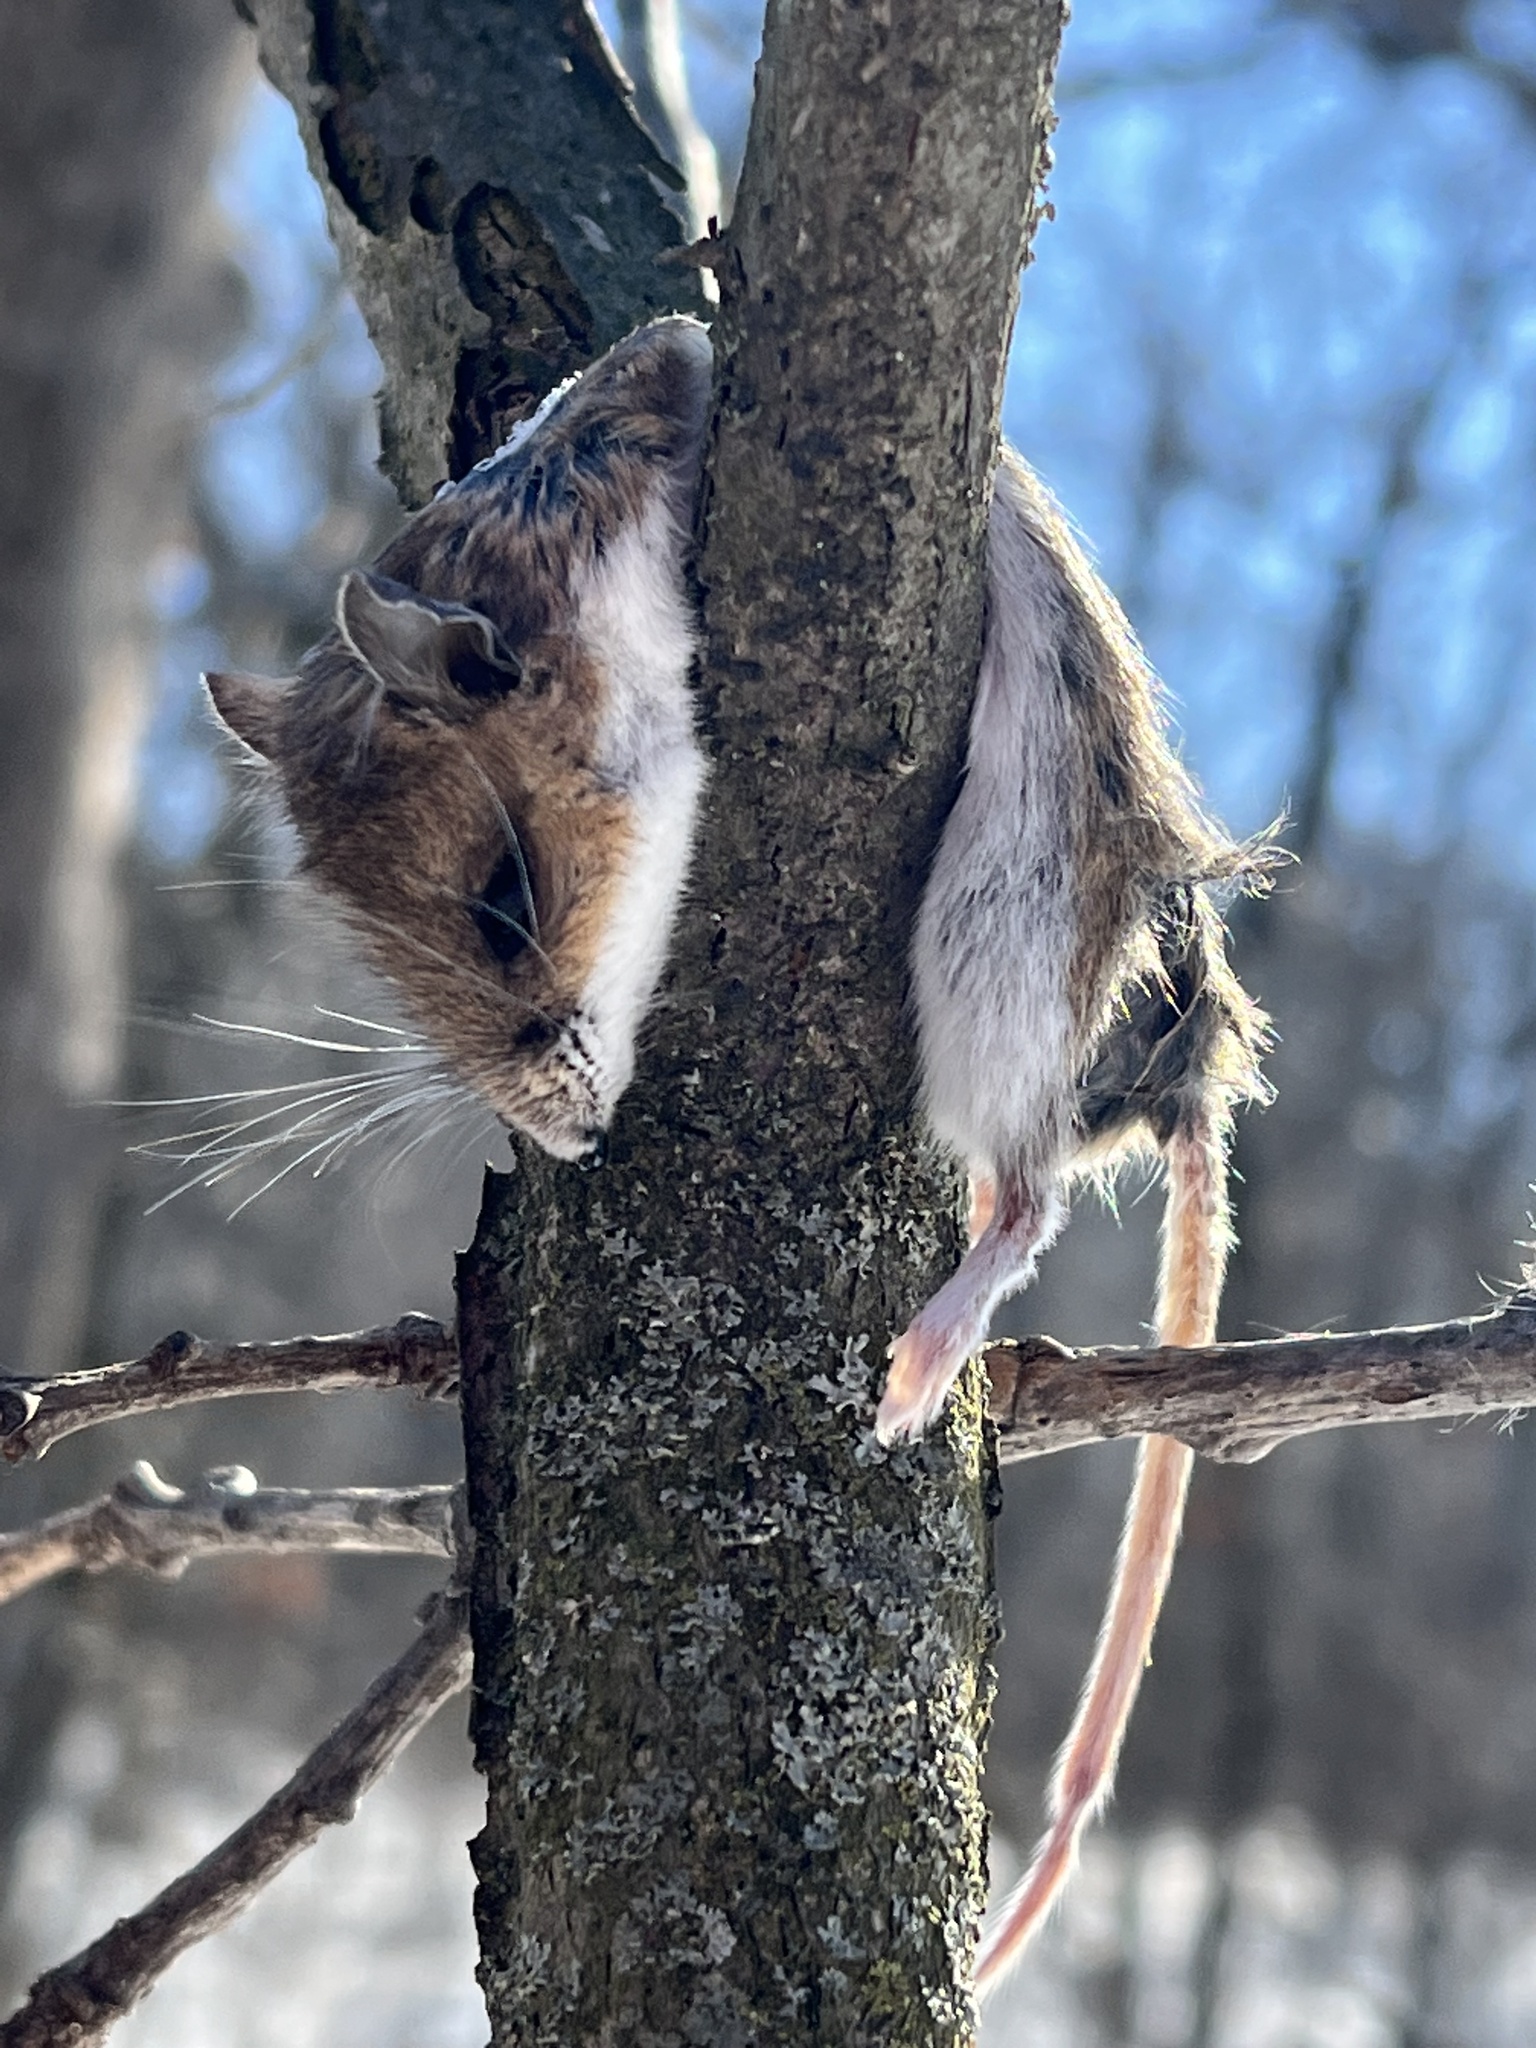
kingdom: Animalia
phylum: Chordata
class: Mammalia
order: Rodentia
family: Cricetidae
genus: Peromyscus
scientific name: Peromyscus maniculatus
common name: Deer mouse
